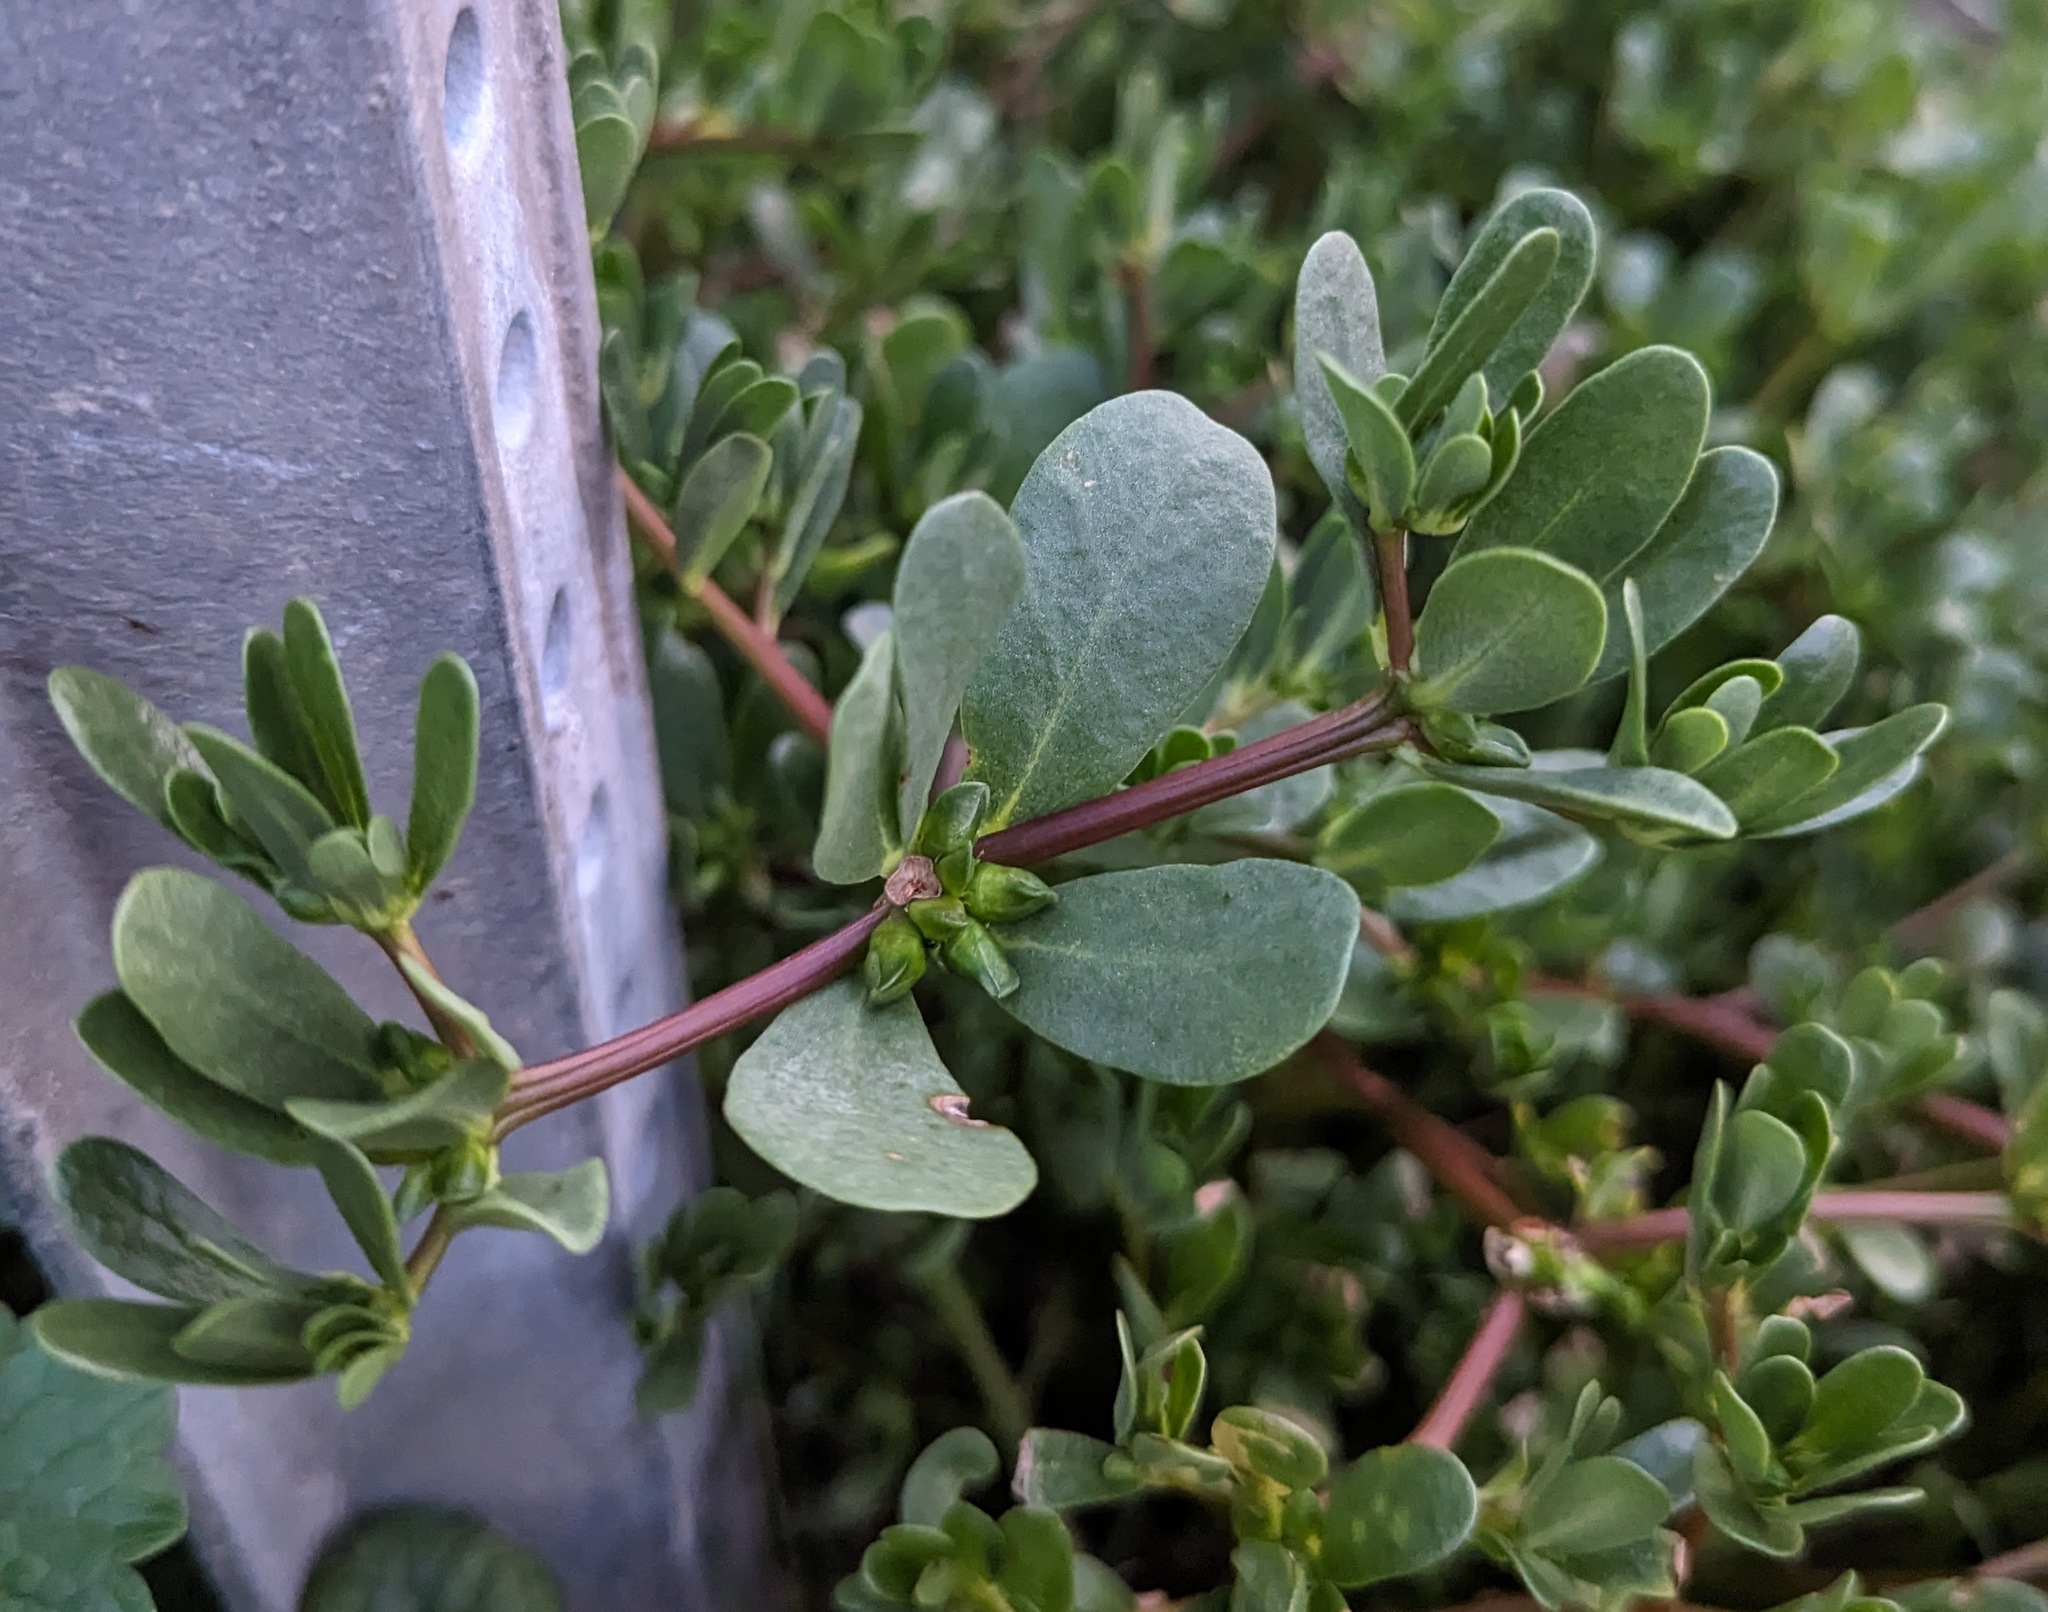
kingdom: Plantae
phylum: Tracheophyta
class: Magnoliopsida
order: Caryophyllales
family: Portulacaceae
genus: Portulaca
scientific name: Portulaca oleracea
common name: Common purslane
